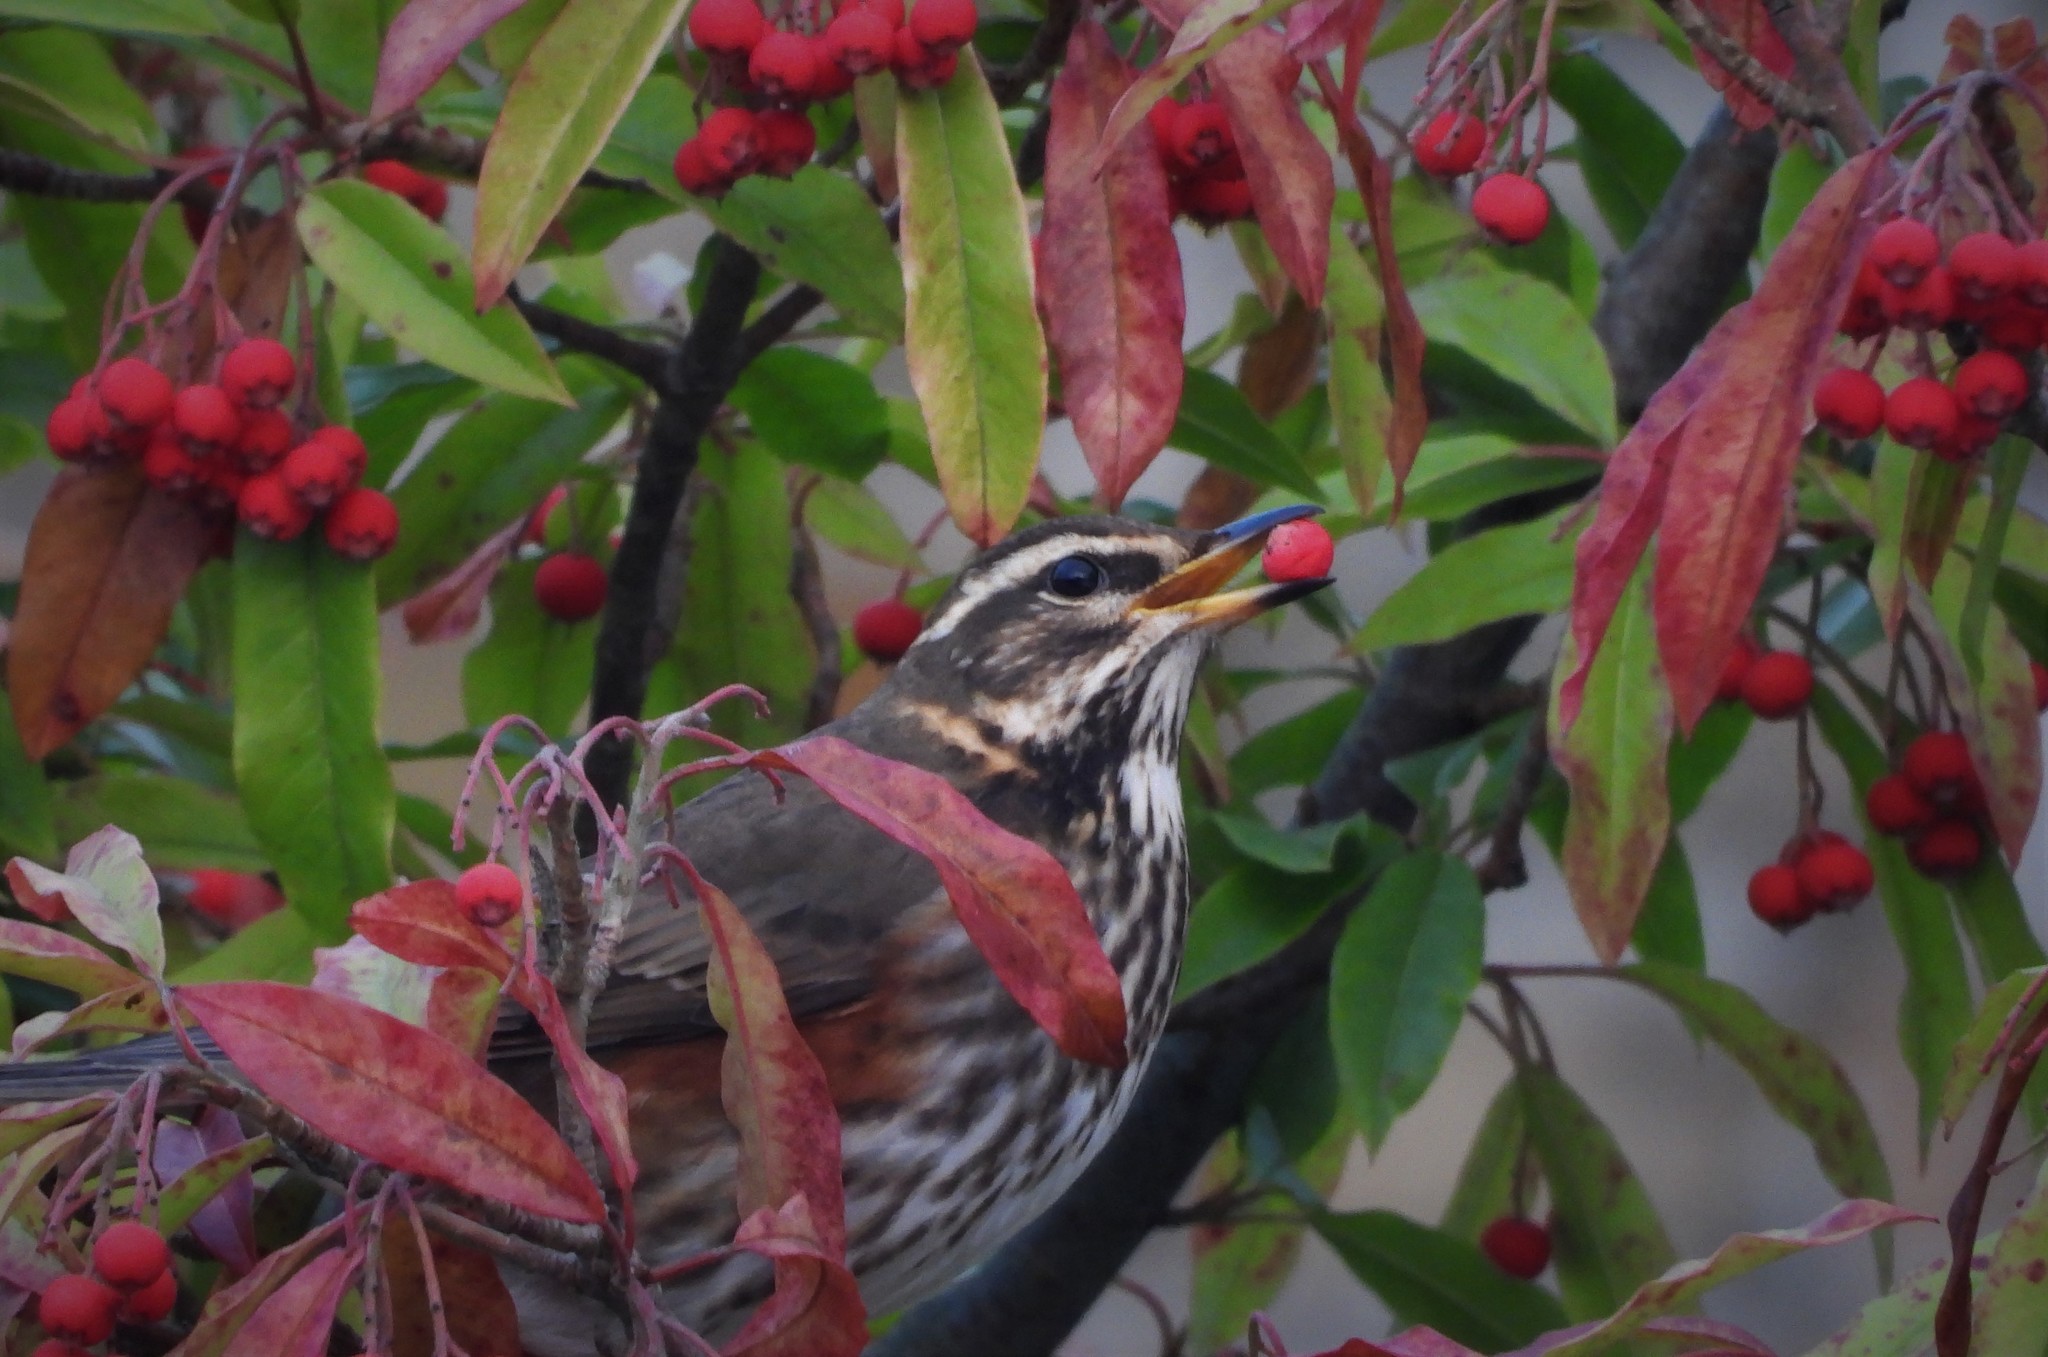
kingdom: Animalia
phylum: Chordata
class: Aves
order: Passeriformes
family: Turdidae
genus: Turdus
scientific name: Turdus iliacus
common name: Redwing
